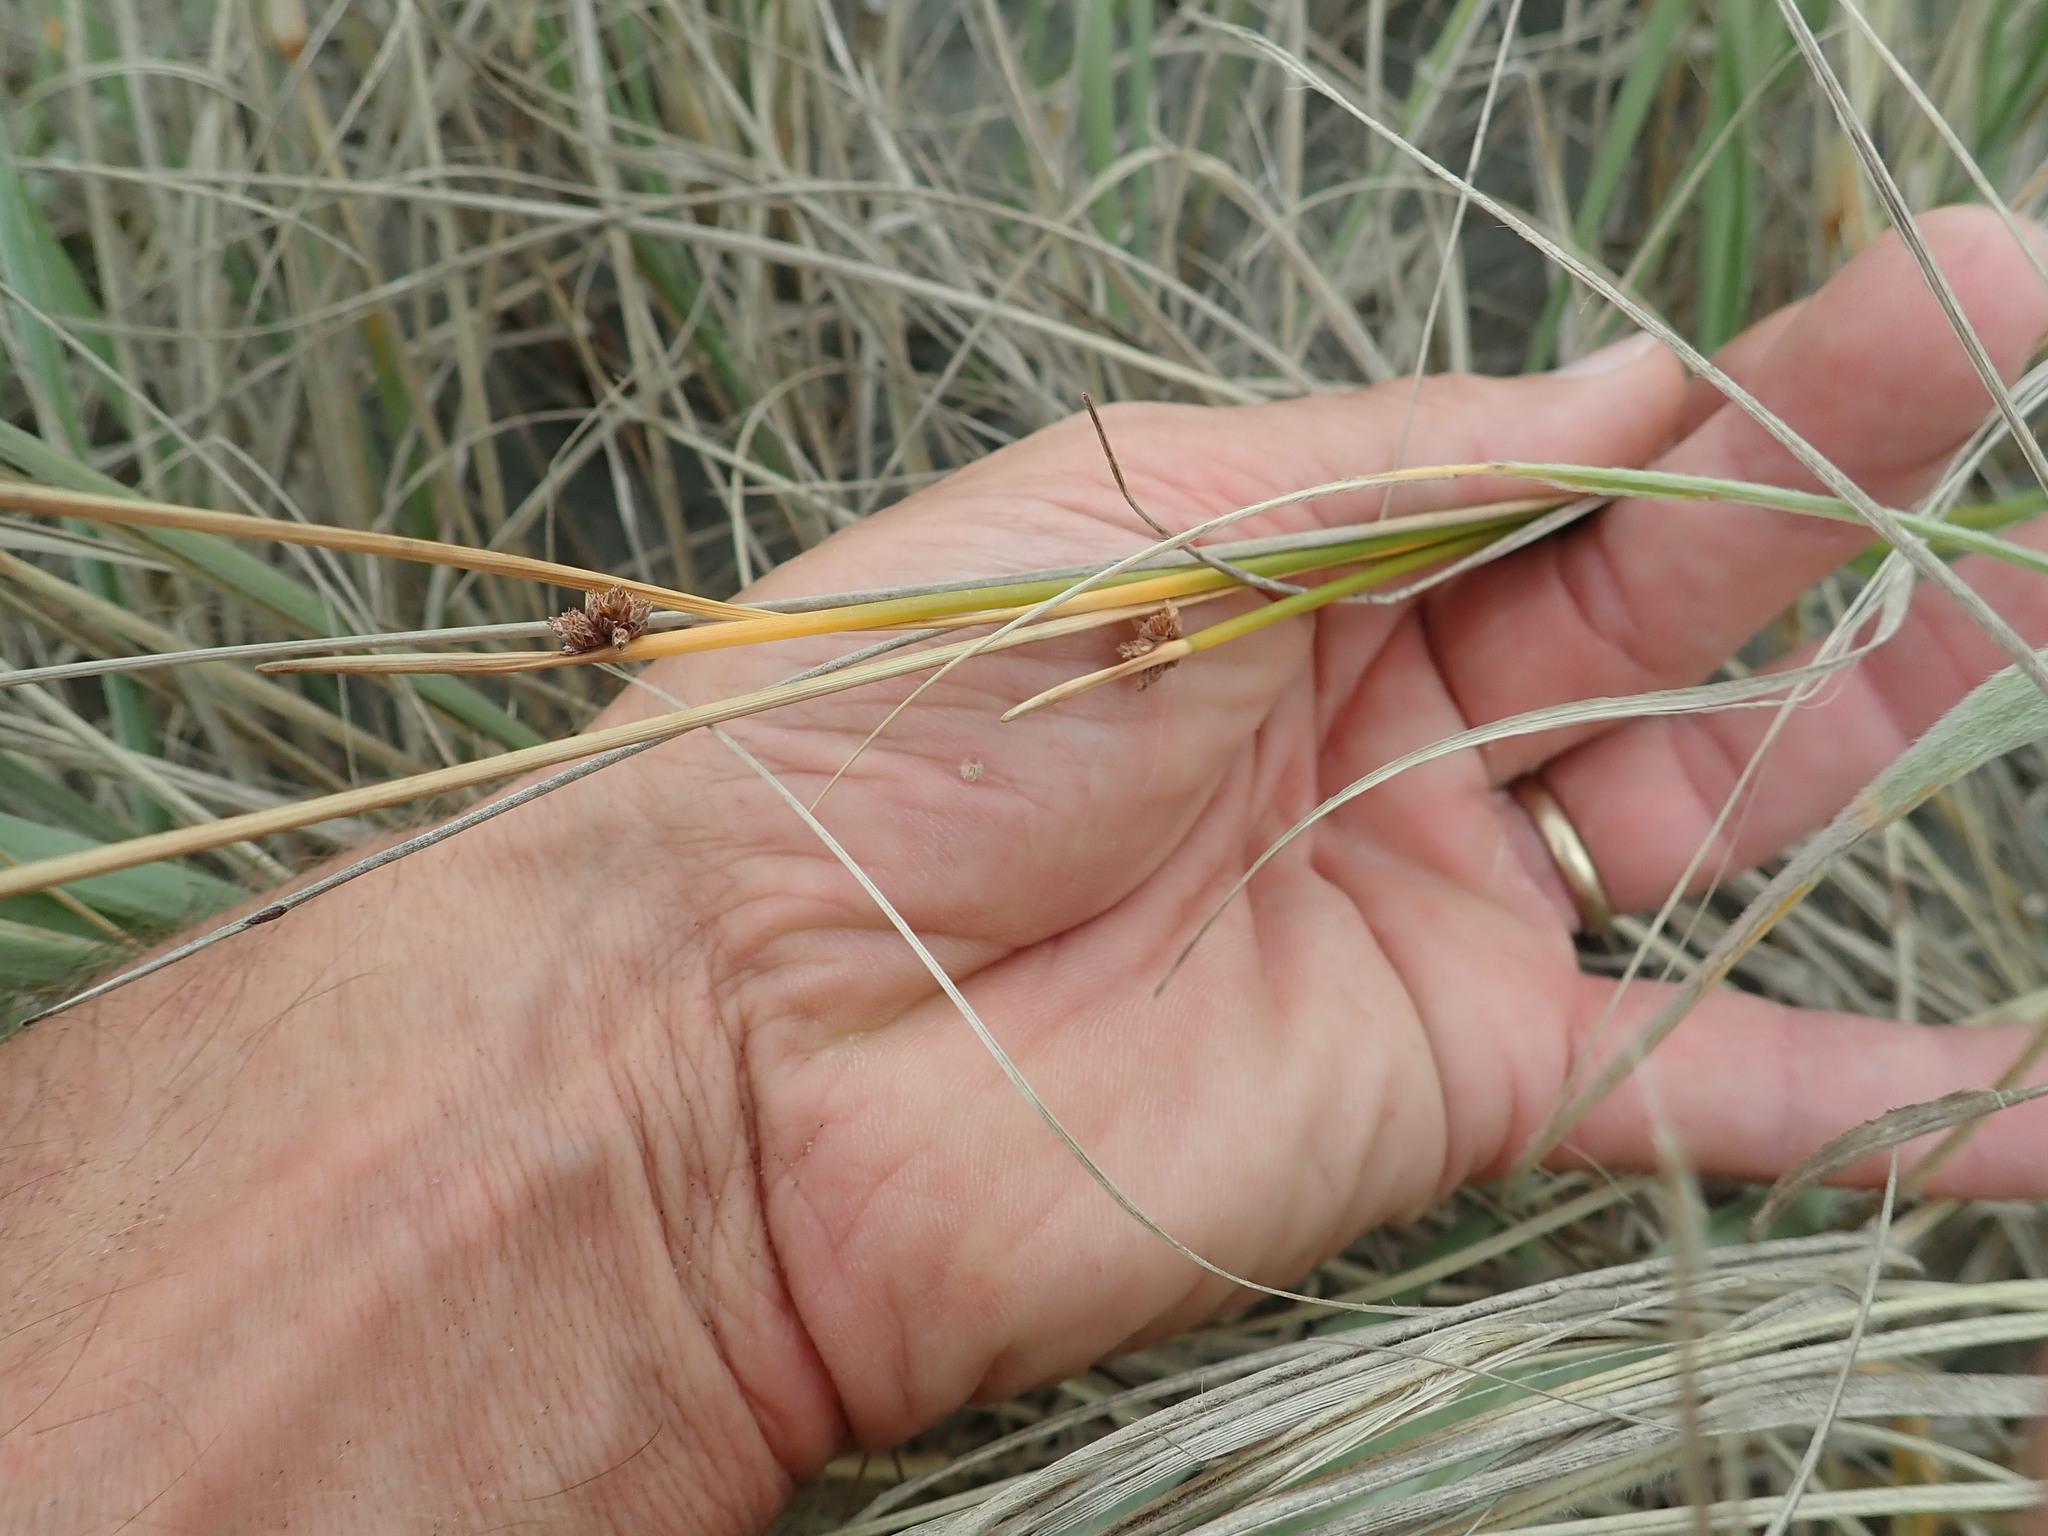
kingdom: Plantae
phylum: Tracheophyta
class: Liliopsida
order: Poales
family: Cyperaceae
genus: Ficinia
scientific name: Ficinia nodosa
